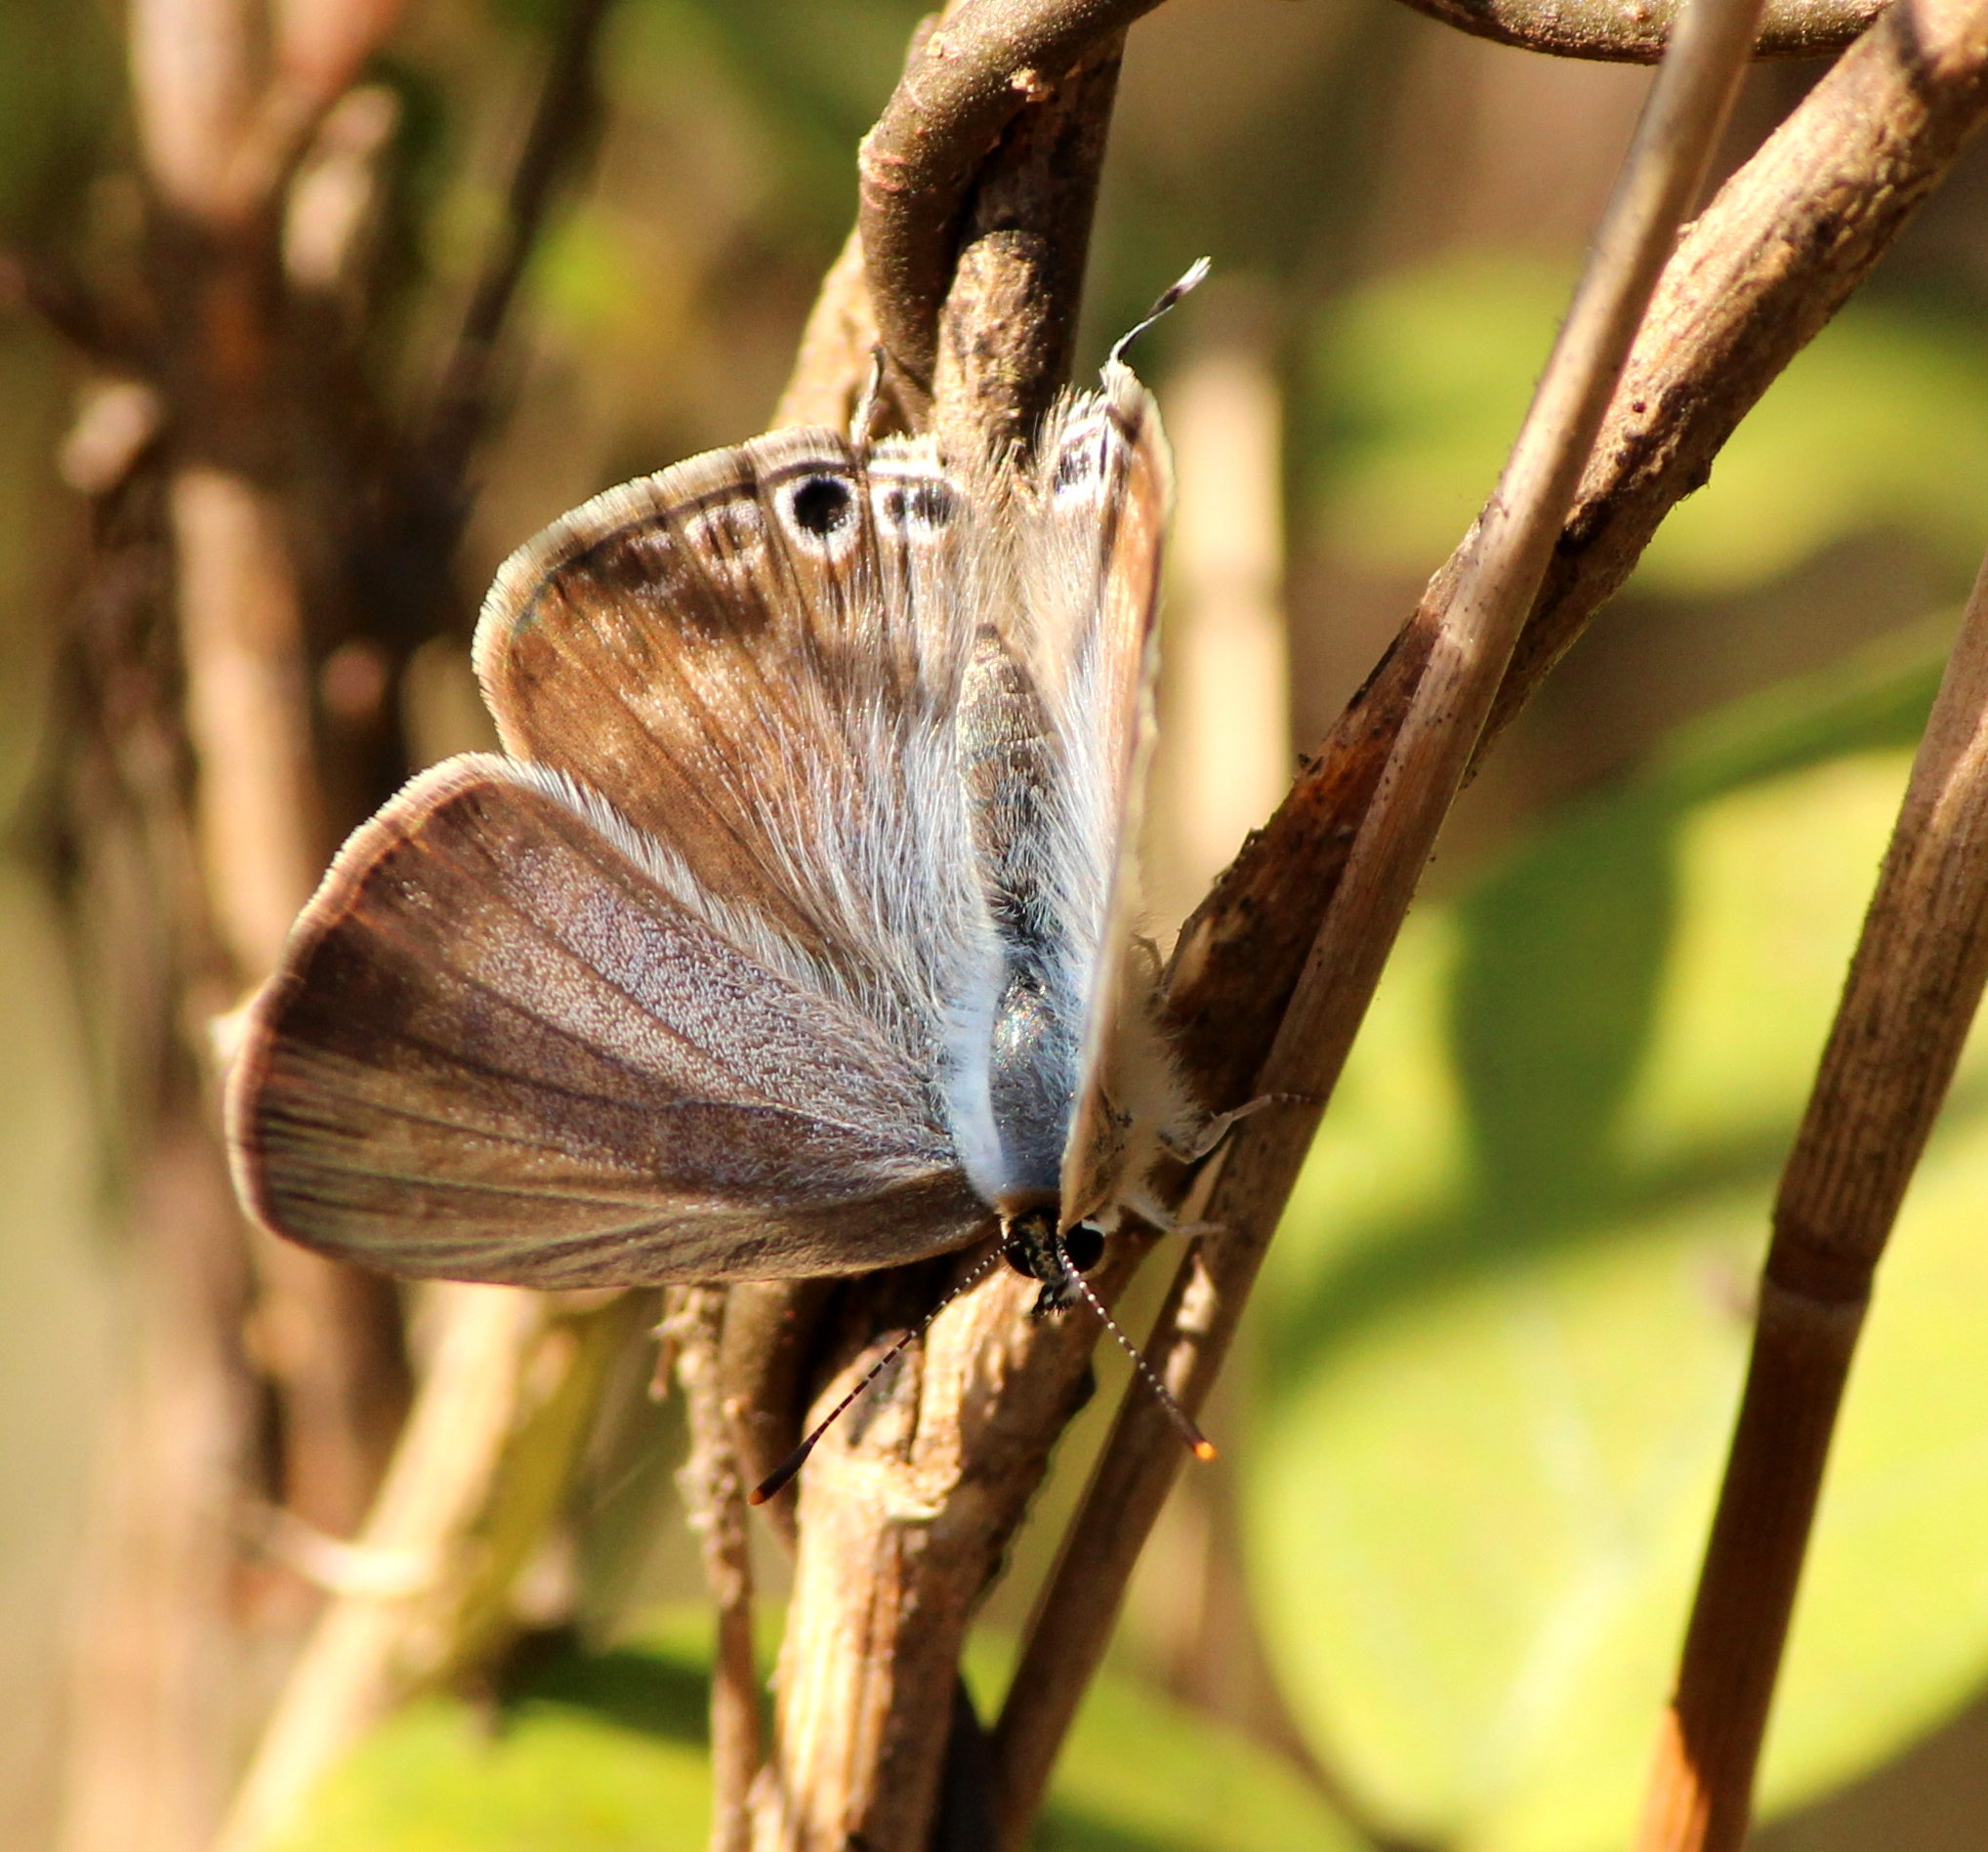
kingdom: Animalia
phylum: Arthropoda
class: Insecta
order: Lepidoptera
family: Lycaenidae
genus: Lampides
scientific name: Lampides boeticus
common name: Long-tailed blue
